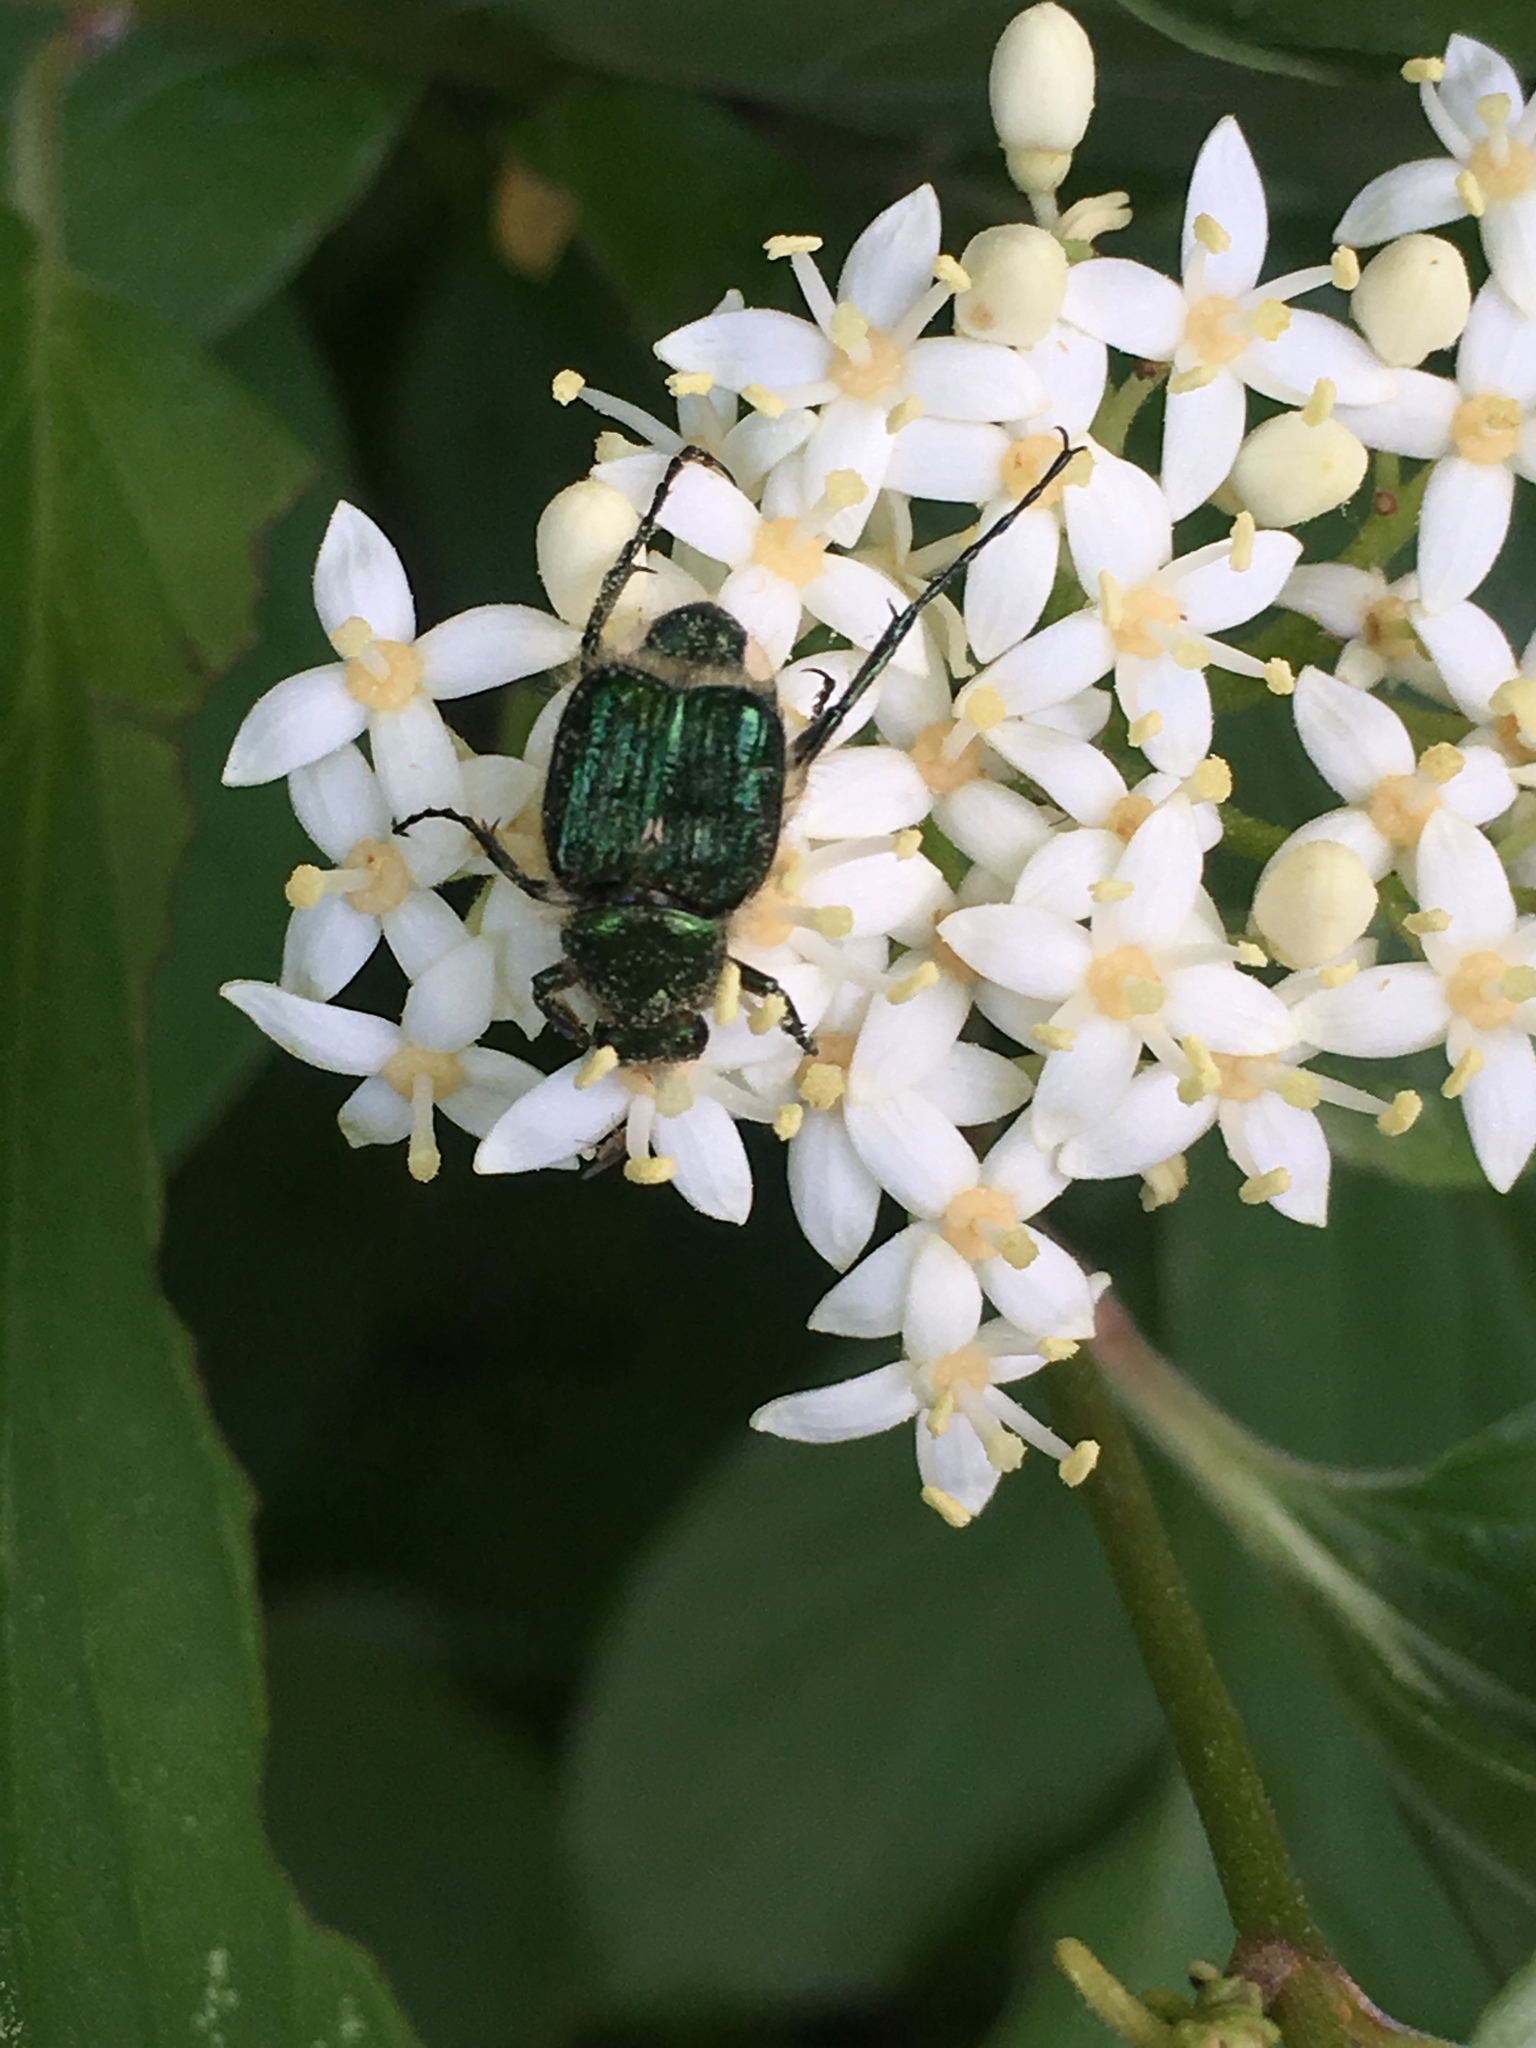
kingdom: Animalia
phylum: Arthropoda
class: Insecta
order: Coleoptera
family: Scarabaeidae
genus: Trichiotinus
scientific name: Trichiotinus lunulatus
